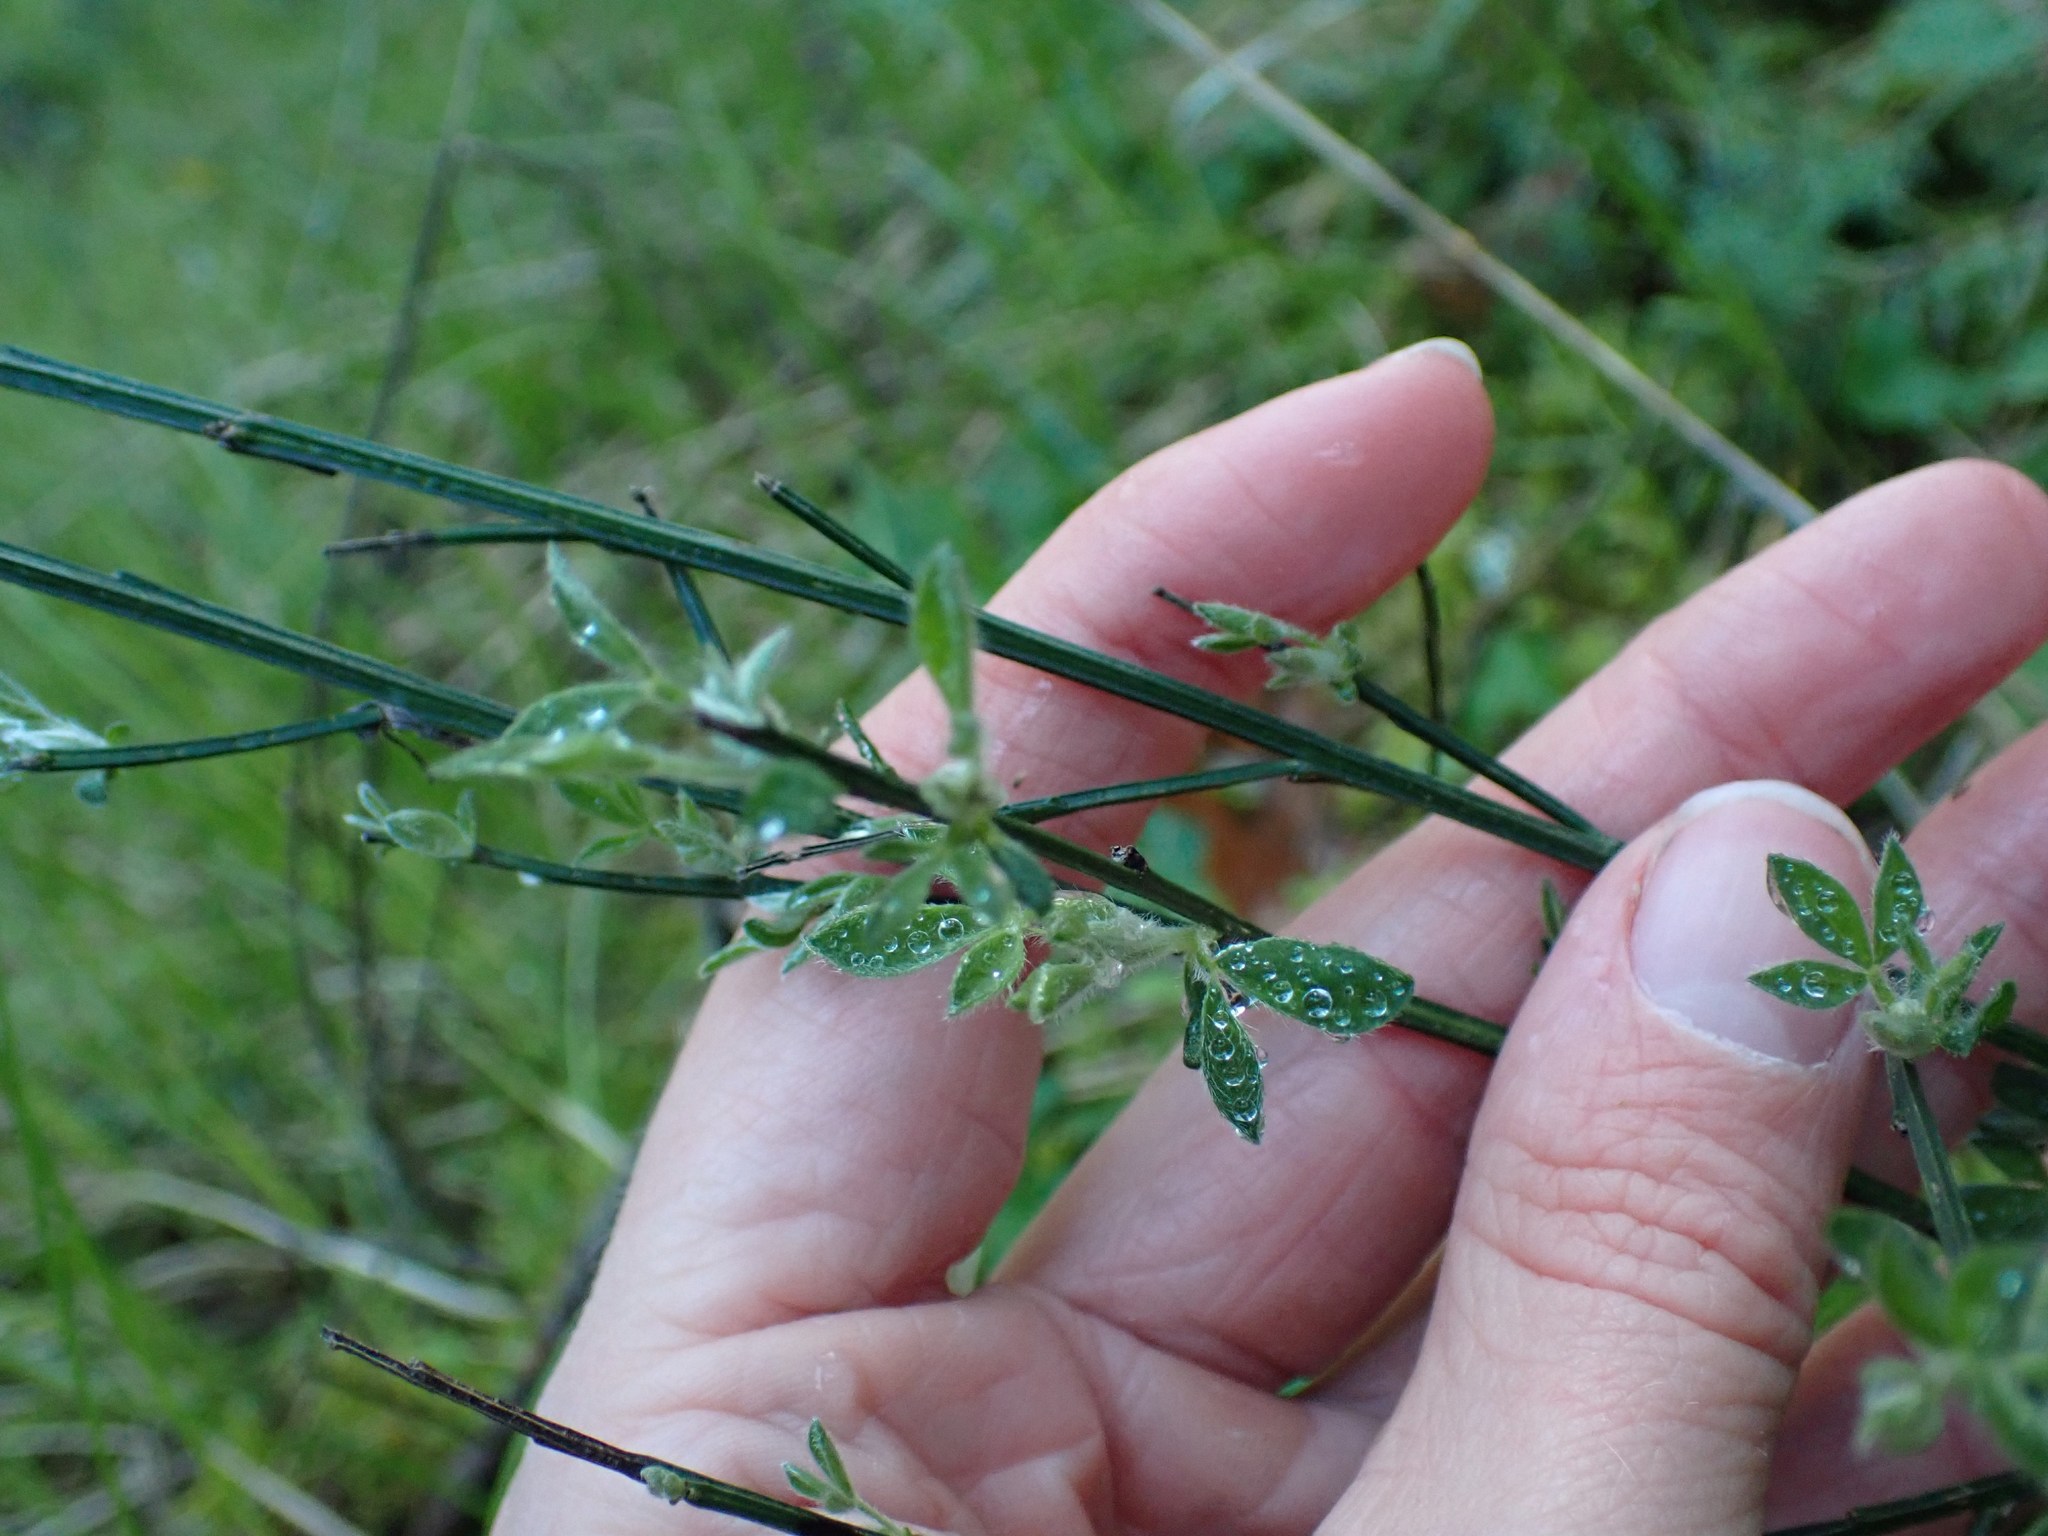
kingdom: Plantae
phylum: Tracheophyta
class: Magnoliopsida
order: Fabales
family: Fabaceae
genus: Cytisus
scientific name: Cytisus scoparius
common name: Scotch broom
